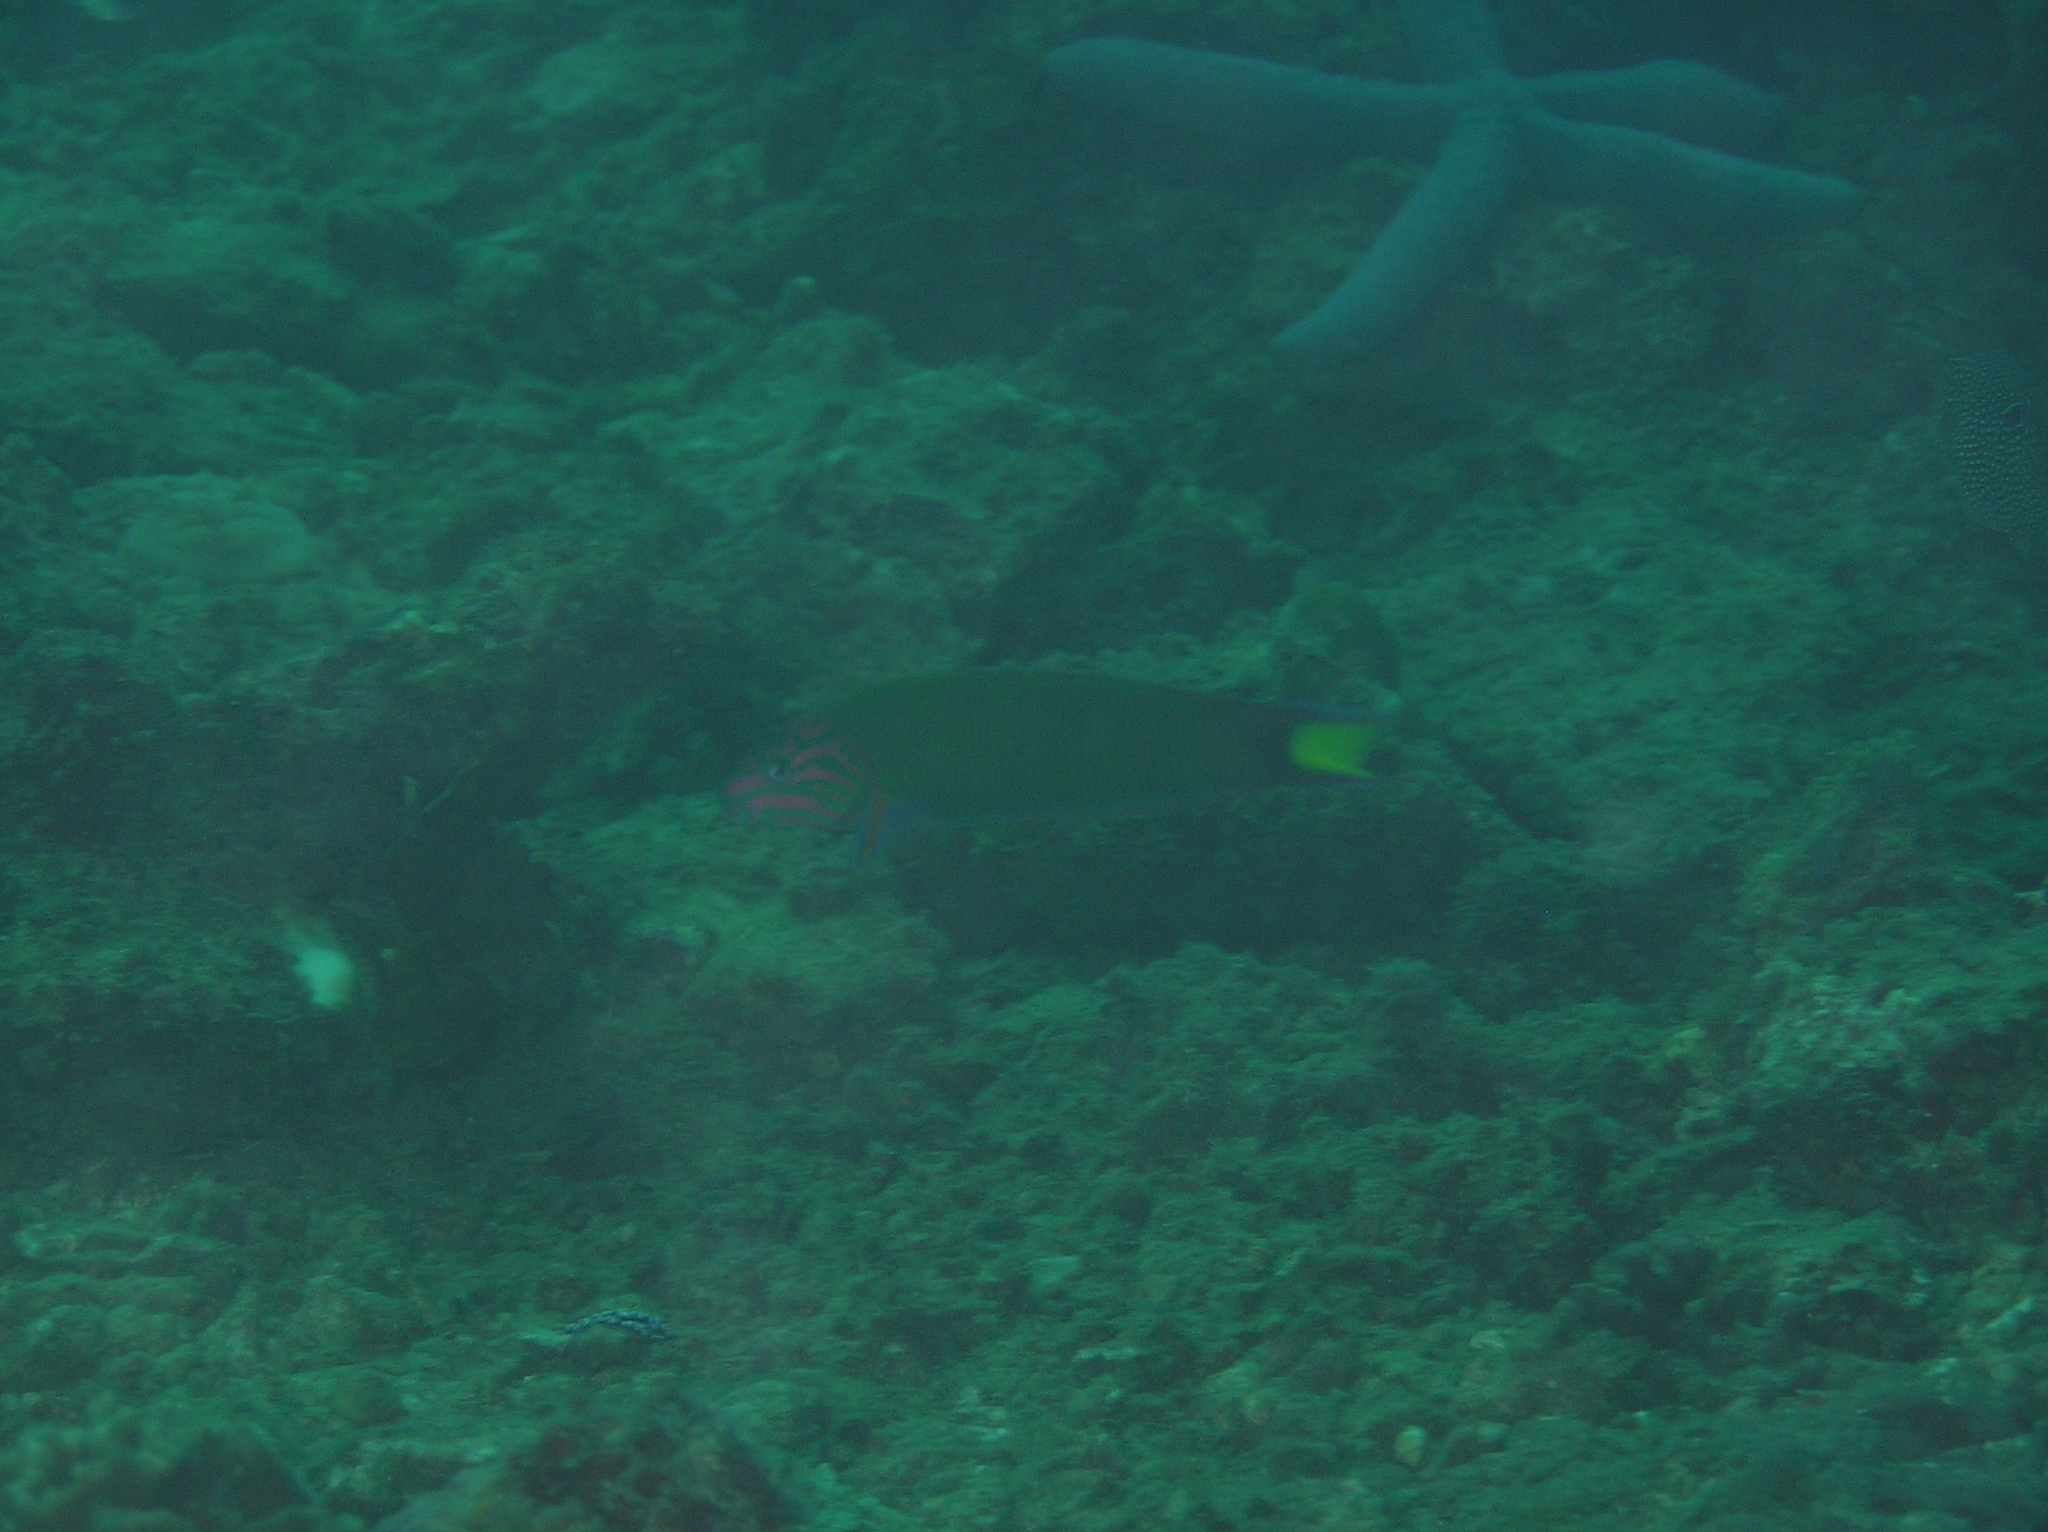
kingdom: Animalia
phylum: Chordata
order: Perciformes
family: Labridae
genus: Thalassoma
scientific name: Thalassoma lunare
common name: Blue wrasse
